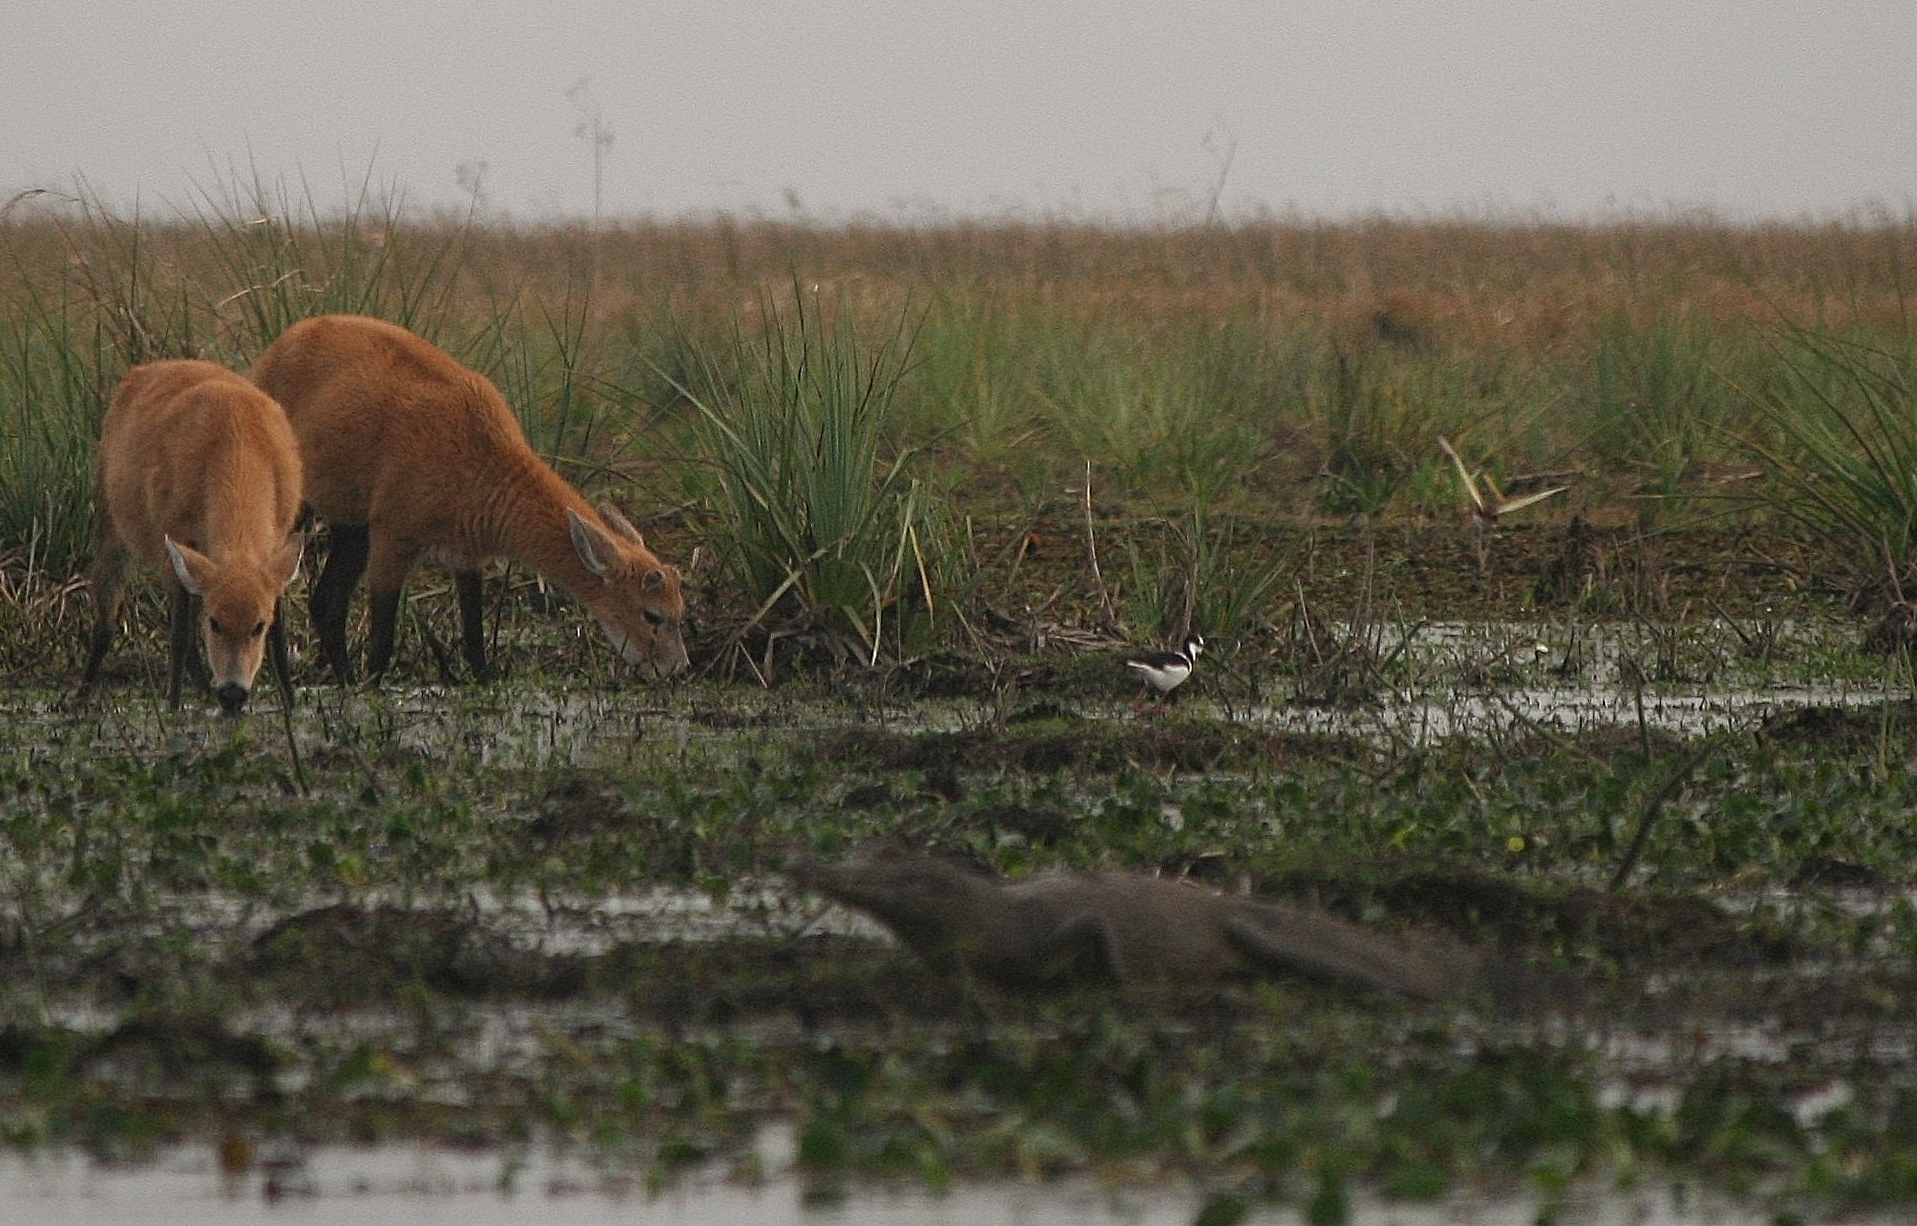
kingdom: Animalia
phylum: Chordata
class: Mammalia
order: Artiodactyla
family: Cervidae
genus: Blastocerus
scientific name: Blastocerus dichotomus
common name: Marsh deer
